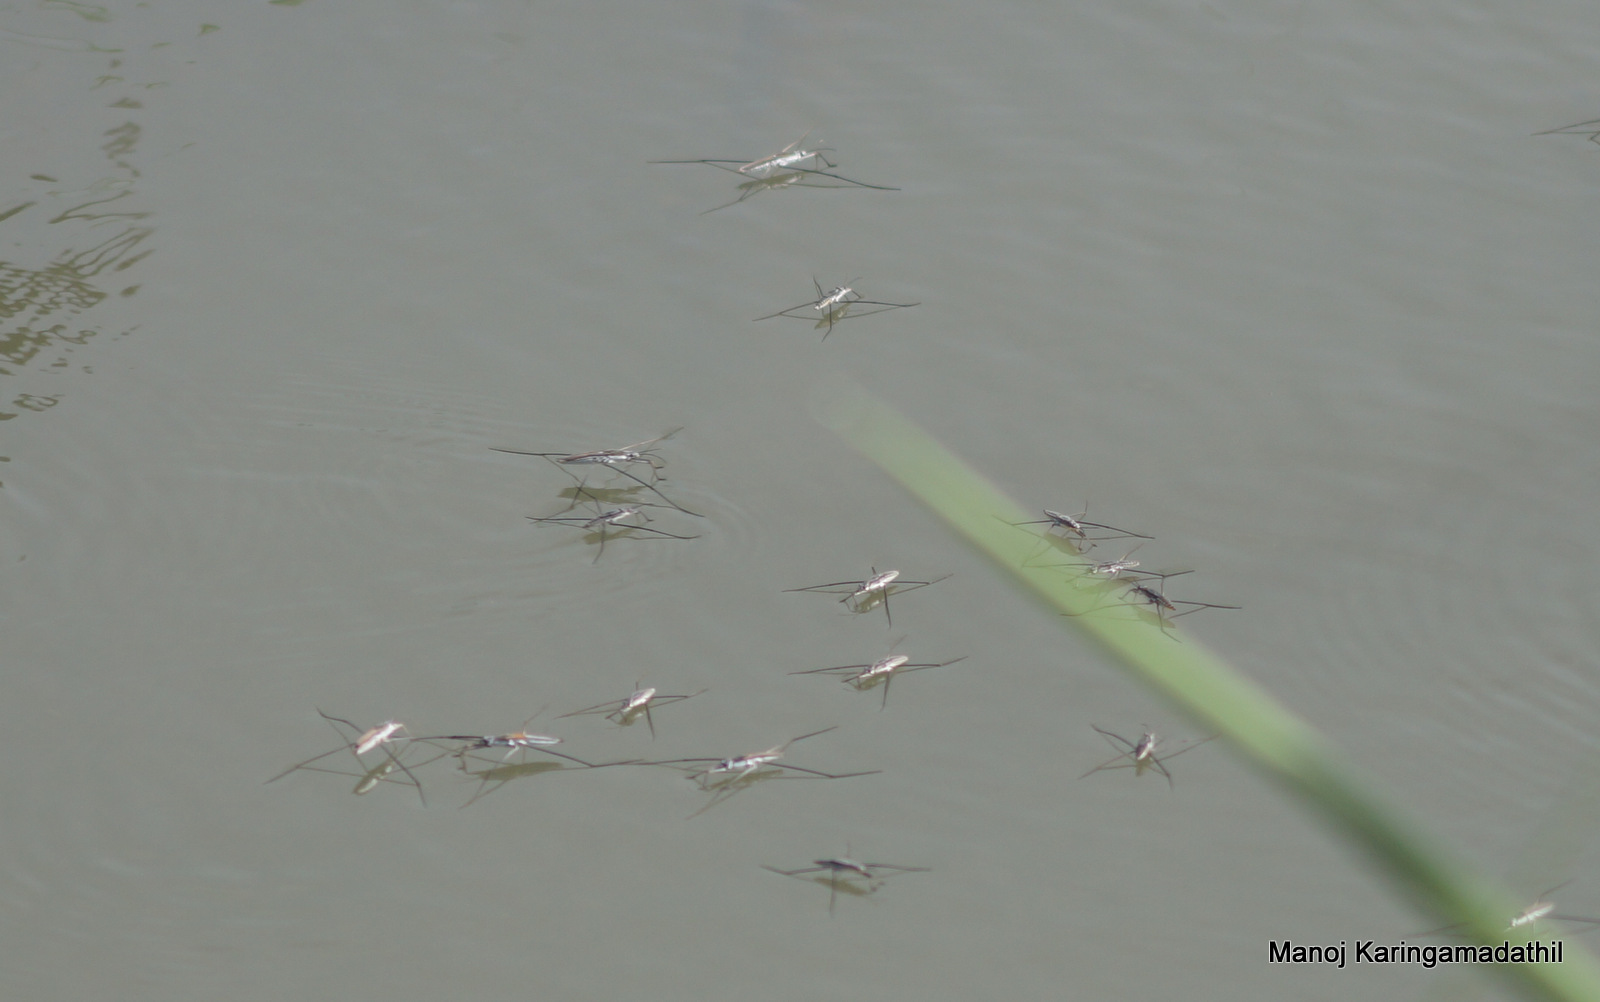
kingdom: Animalia
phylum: Arthropoda
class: Insecta
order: Hemiptera
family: Gerridae
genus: Aquarius
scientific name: Aquarius adelaidis
